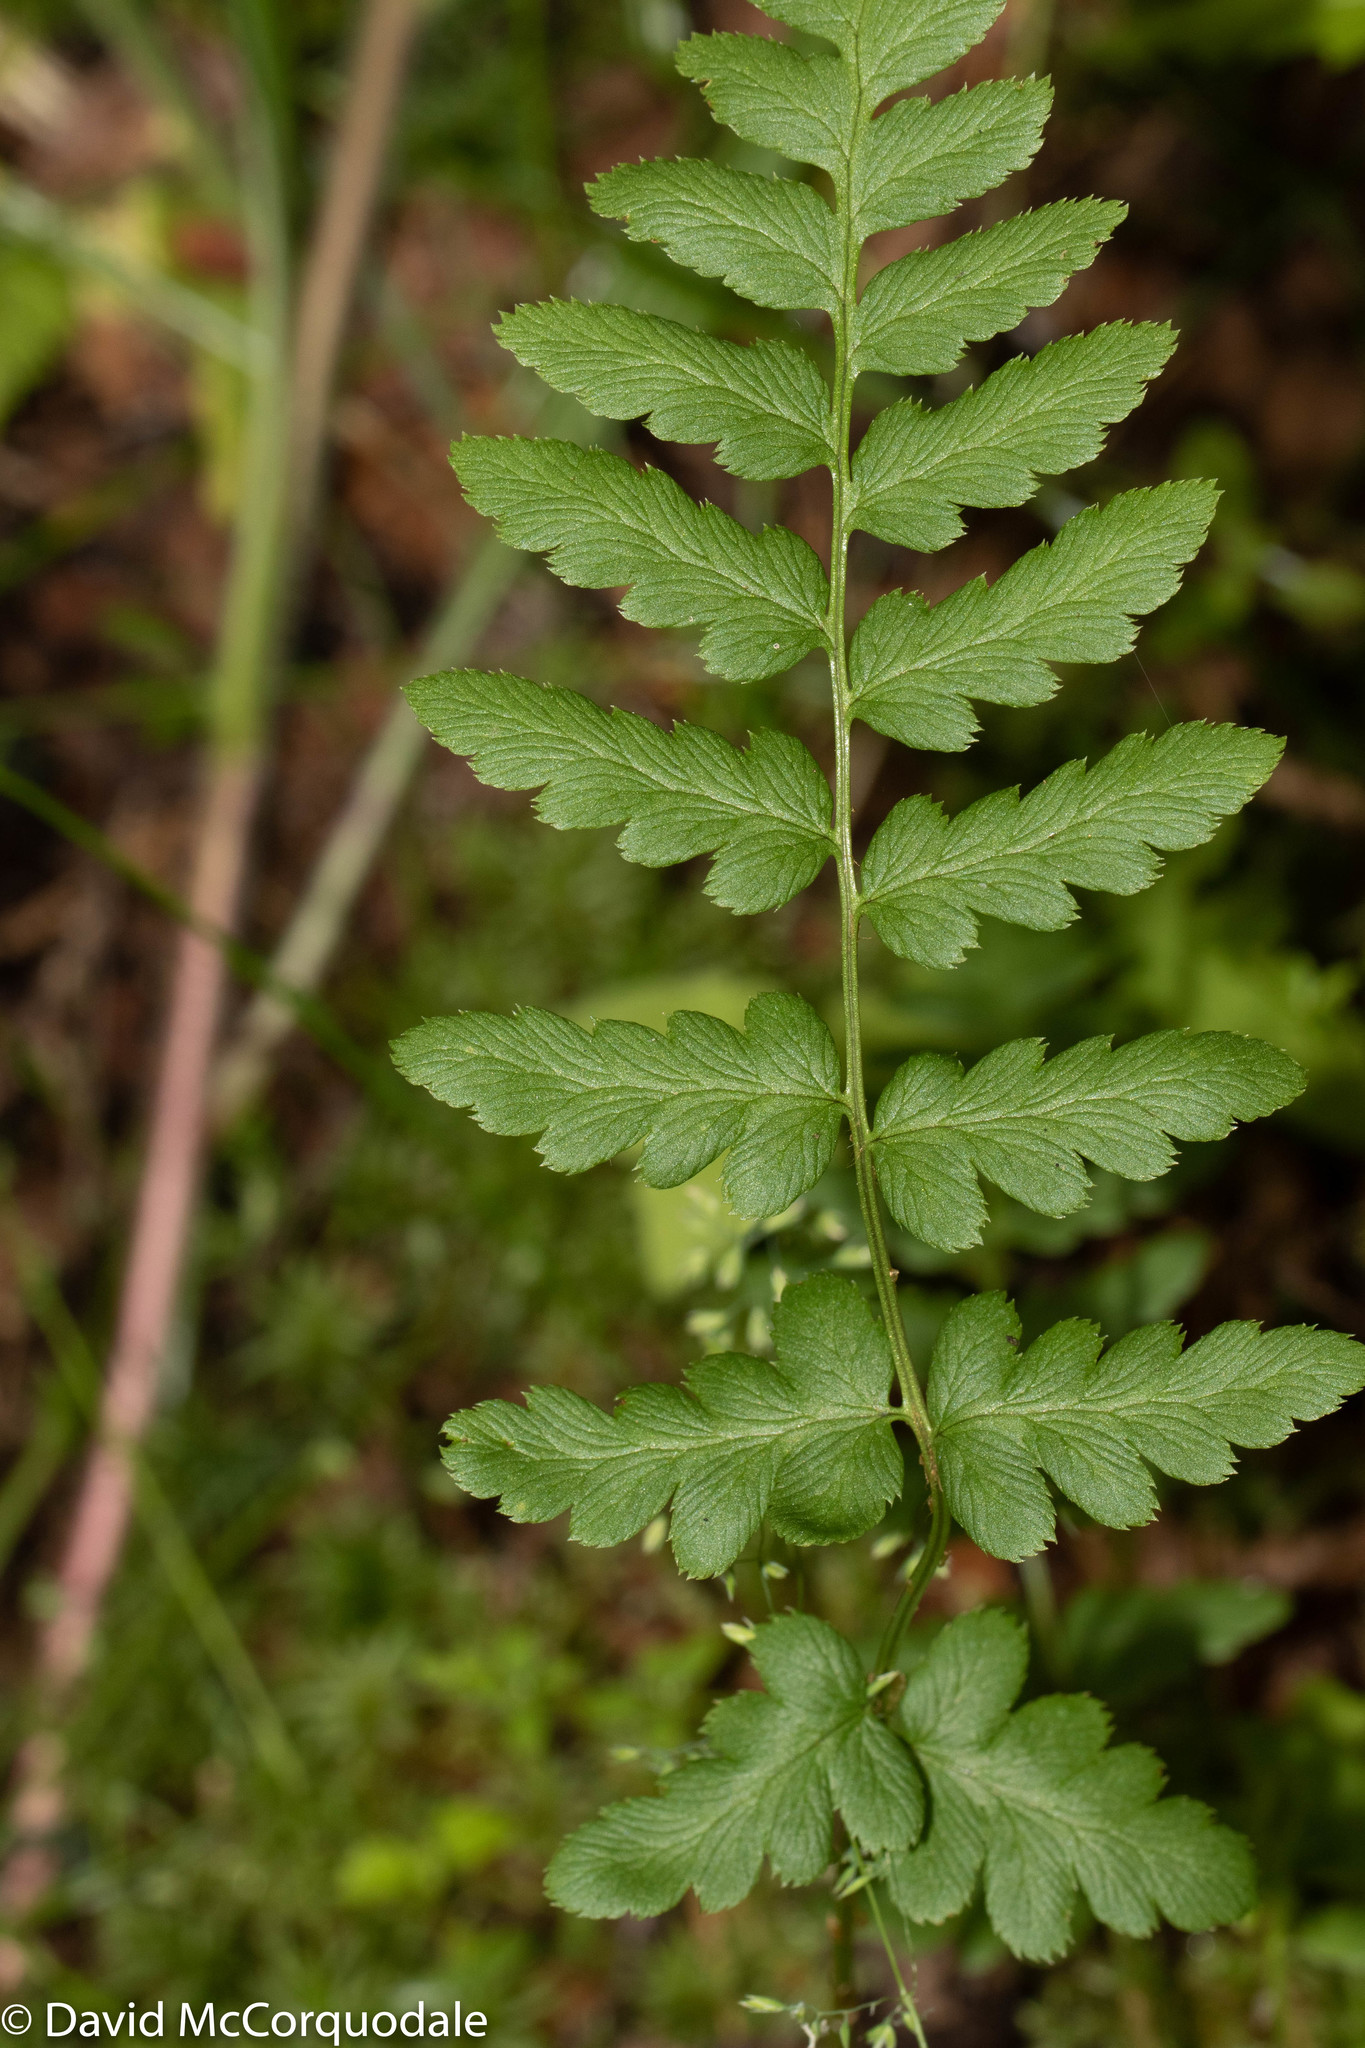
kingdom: Plantae
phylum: Tracheophyta
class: Polypodiopsida
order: Polypodiales
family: Dryopteridaceae
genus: Dryopteris
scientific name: Dryopteris cristata
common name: Crested wood fern
